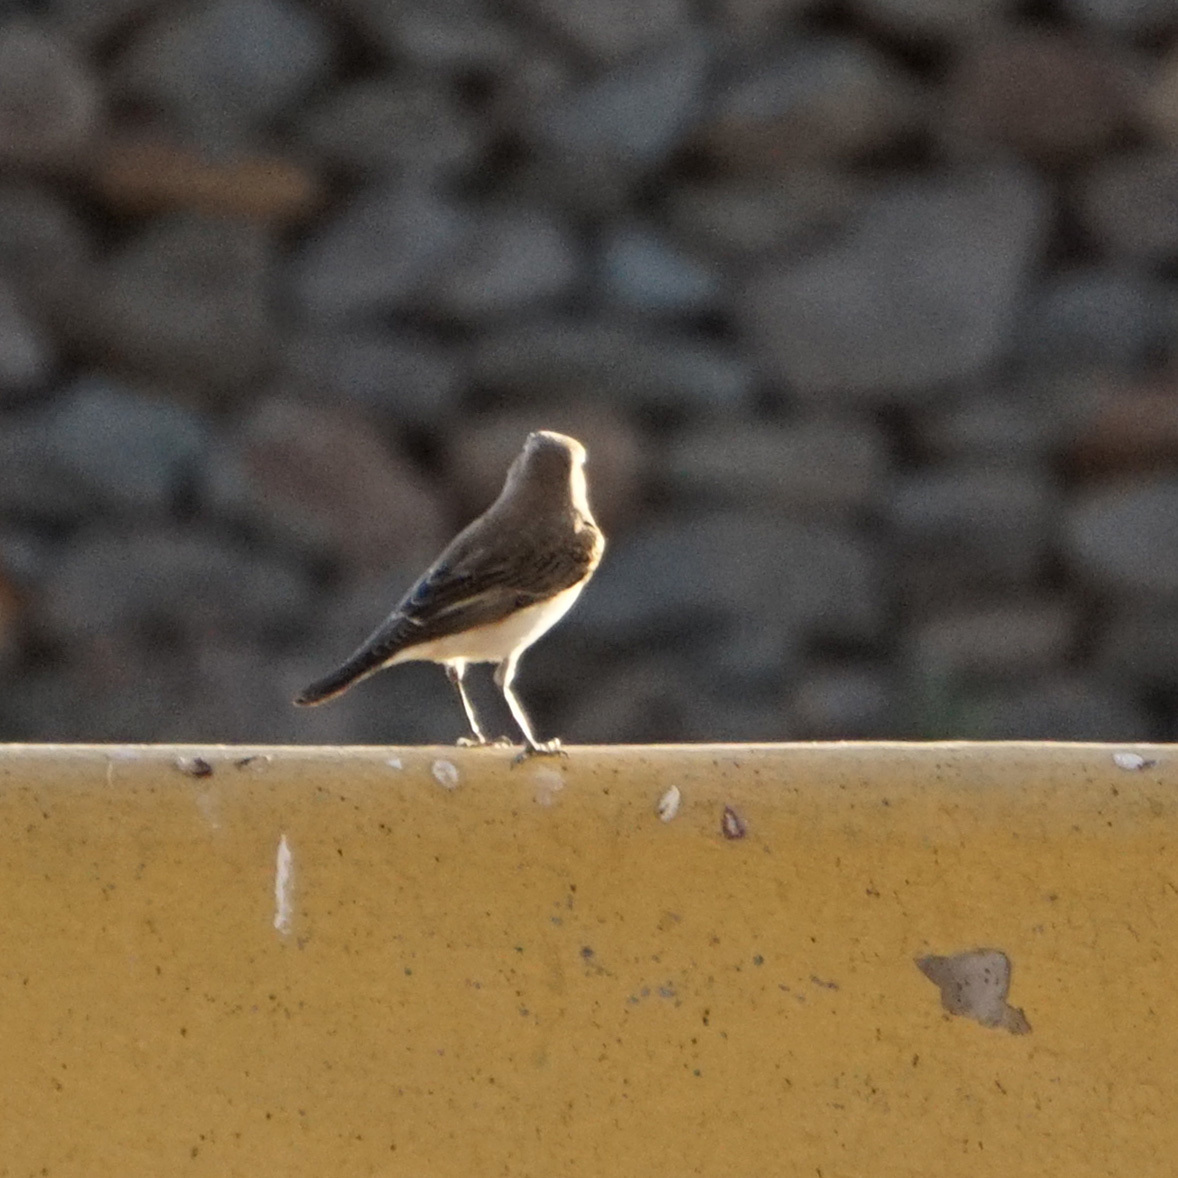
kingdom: Animalia
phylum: Chordata
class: Aves
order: Passeriformes
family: Muscicapidae
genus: Oenanthe
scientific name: Oenanthe oenanthe
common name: Northern wheatear
